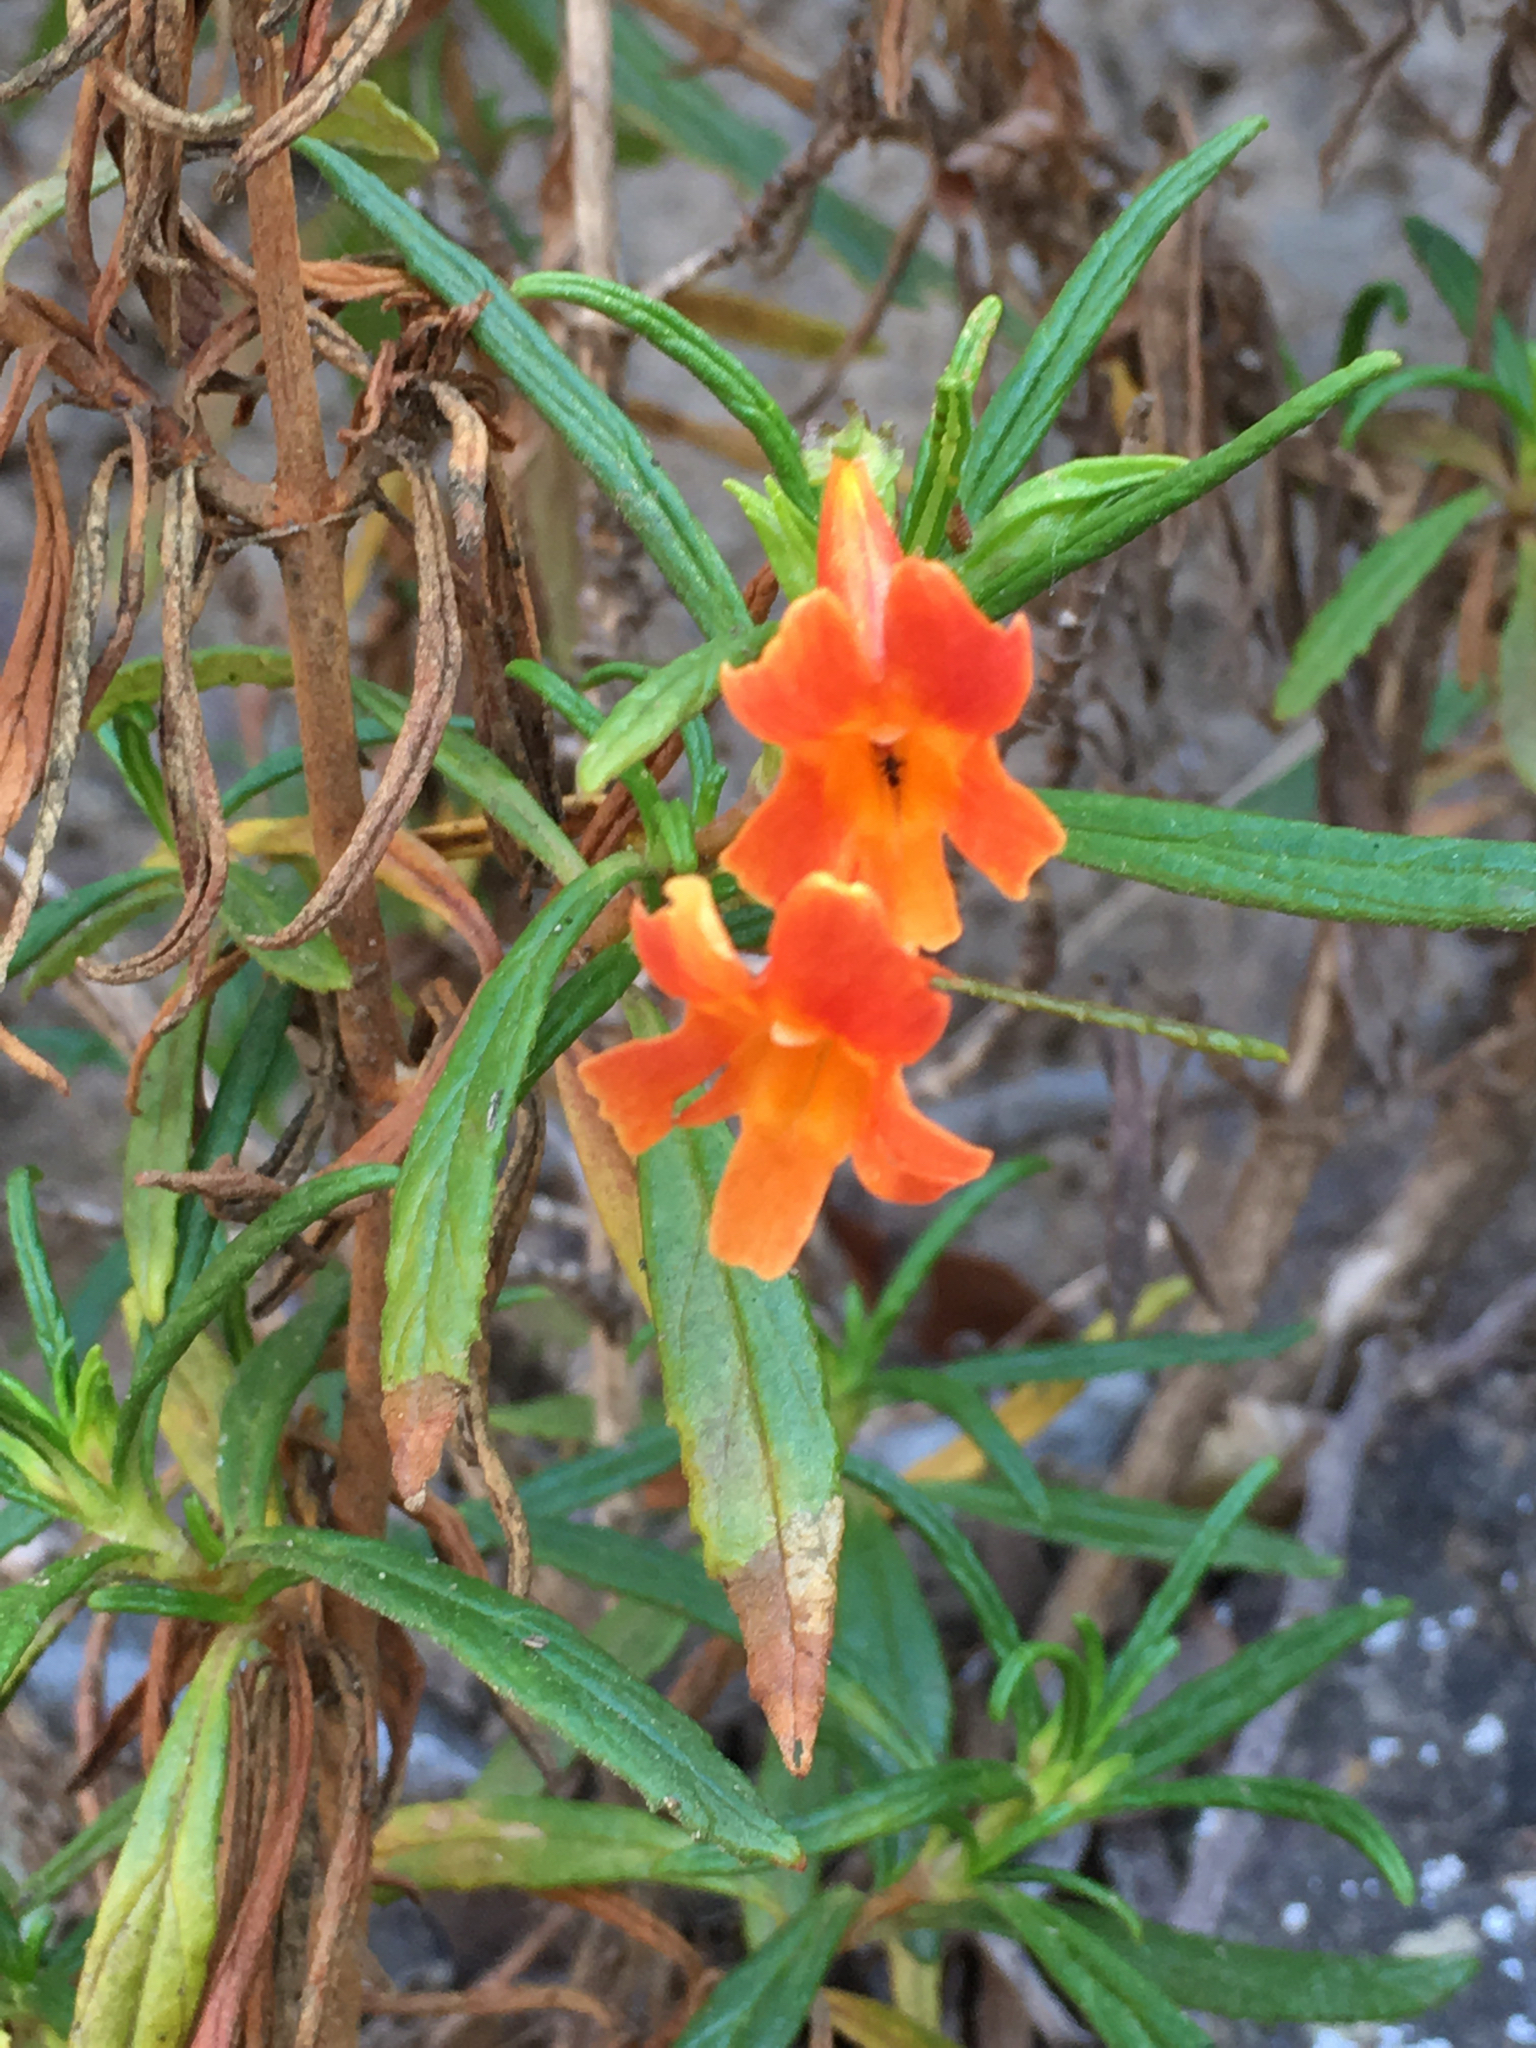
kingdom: Plantae
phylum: Tracheophyta
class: Magnoliopsida
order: Lamiales
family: Phrymaceae
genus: Diplacus
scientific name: Diplacus puniceus
